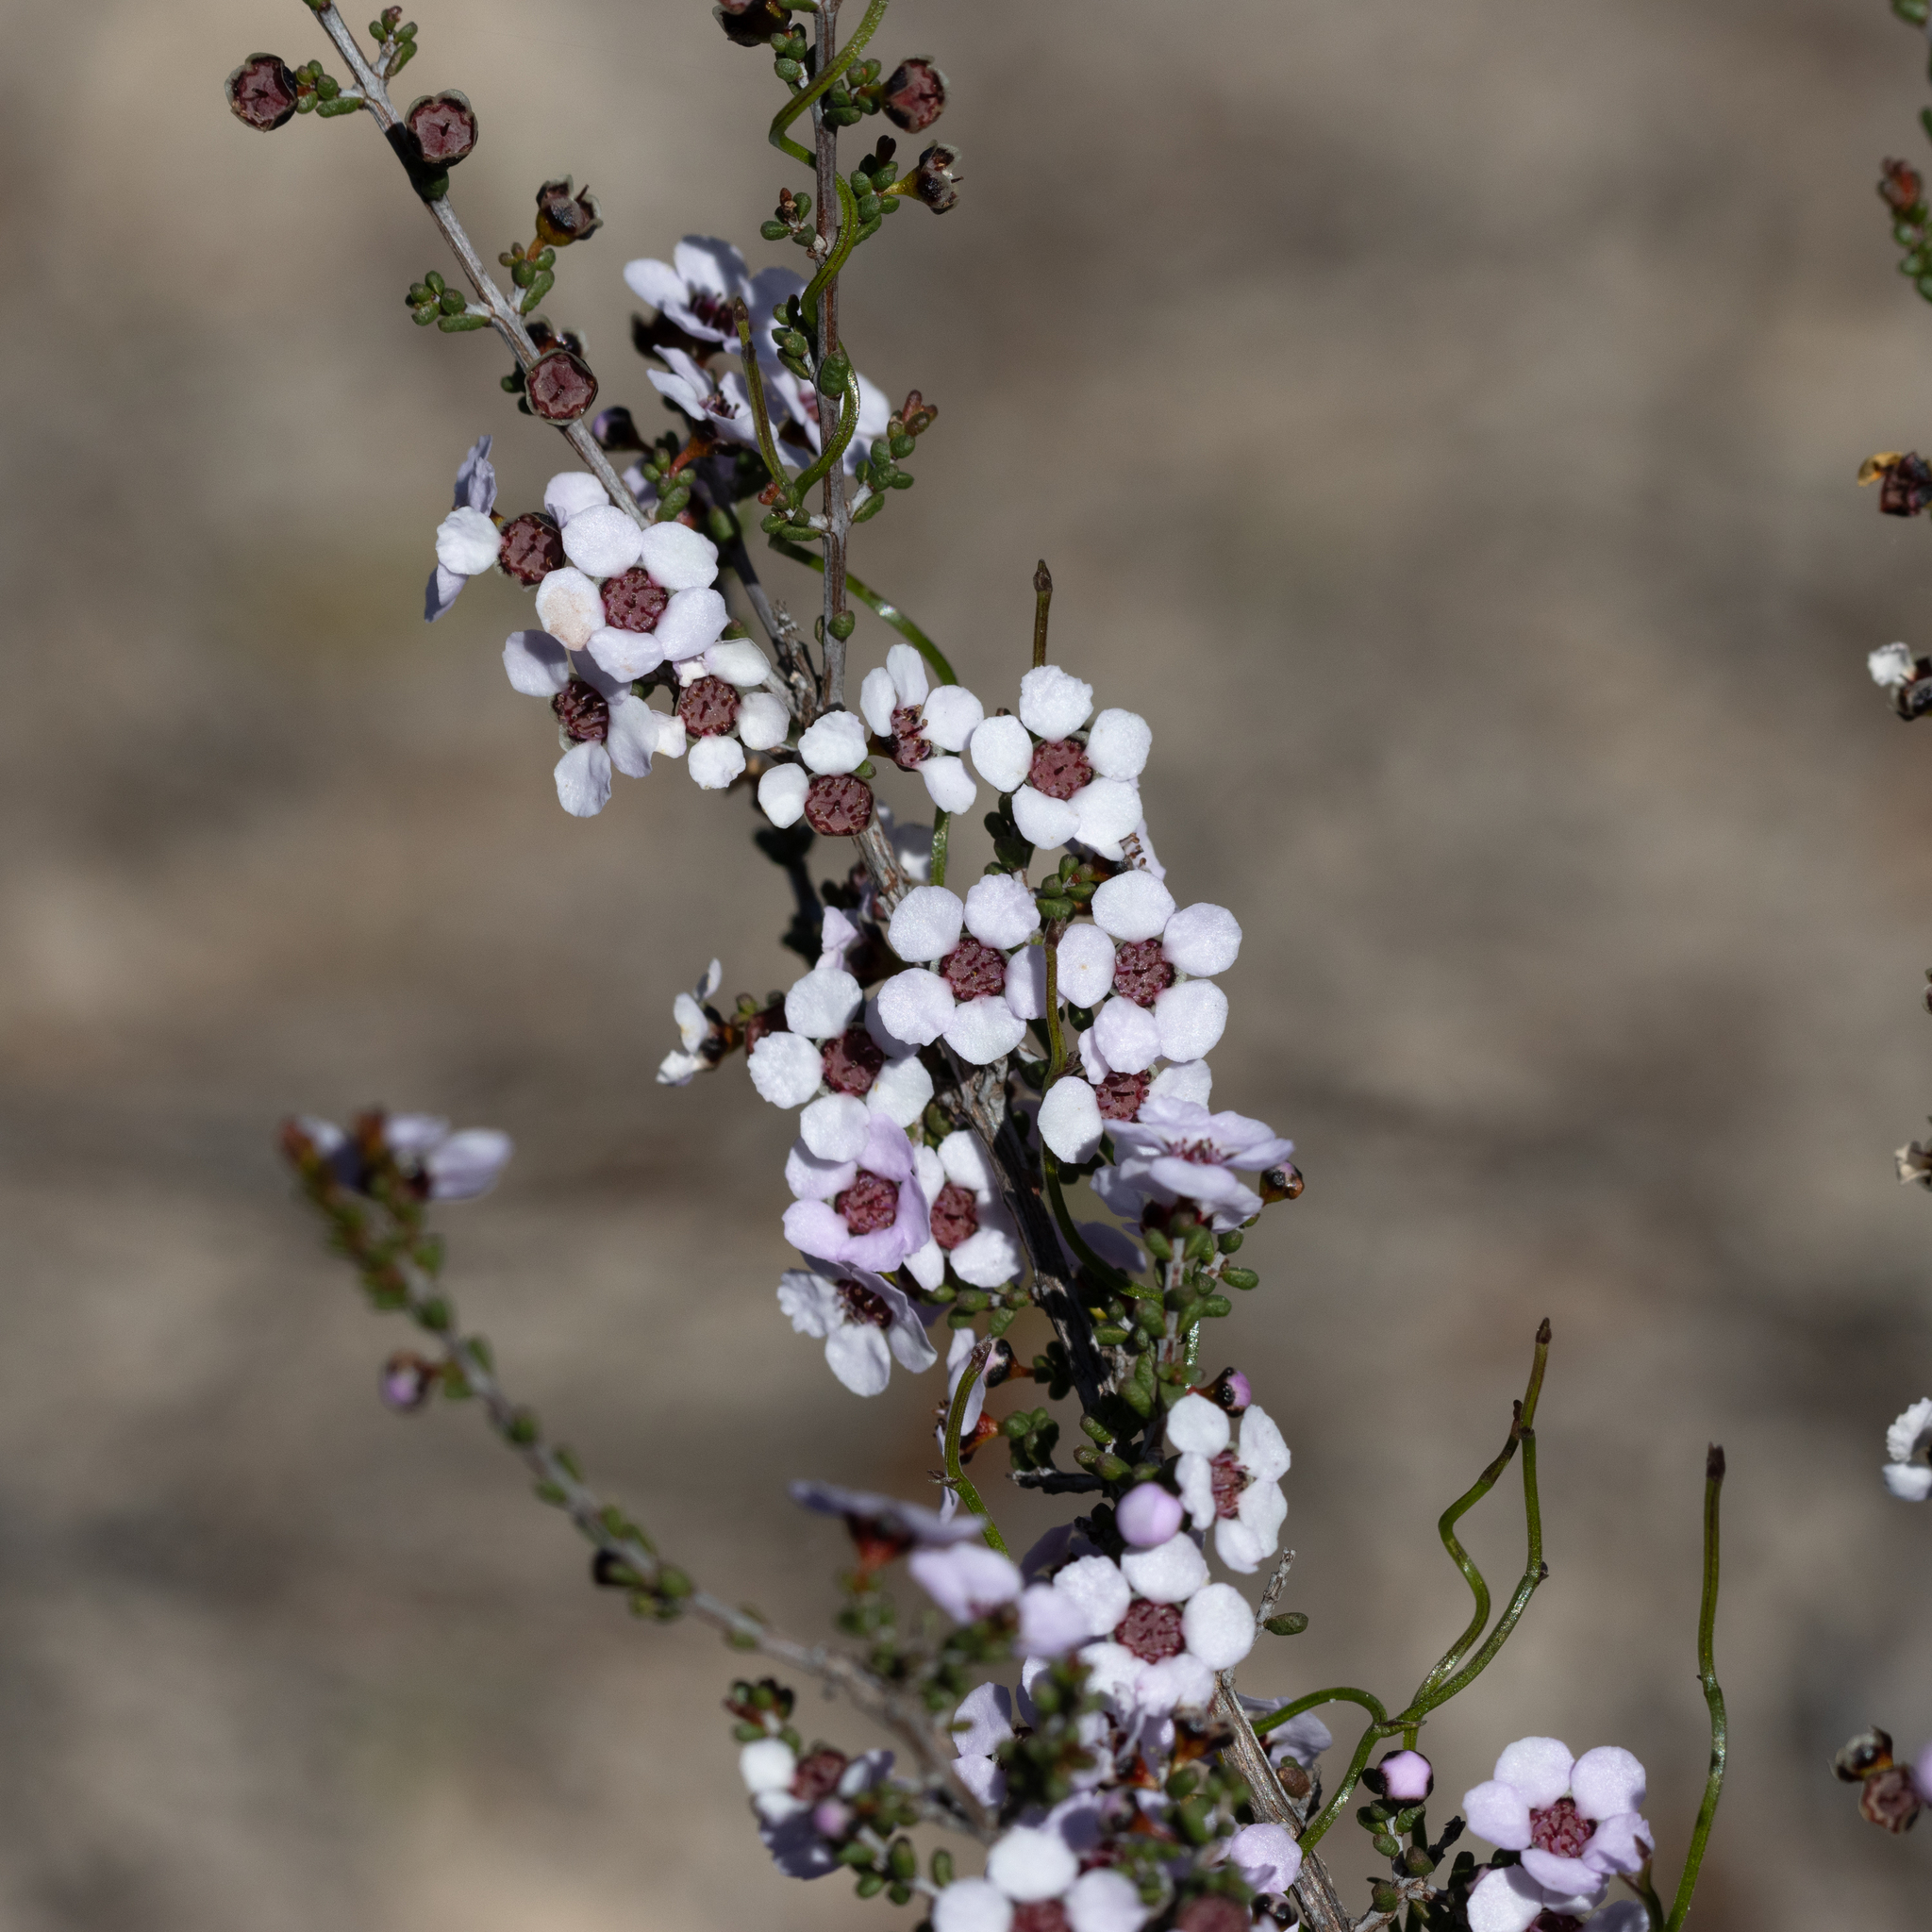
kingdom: Plantae
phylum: Tracheophyta
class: Magnoliopsida
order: Myrtales
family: Myrtaceae
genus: Rinzia
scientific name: Rinzia orientalis
